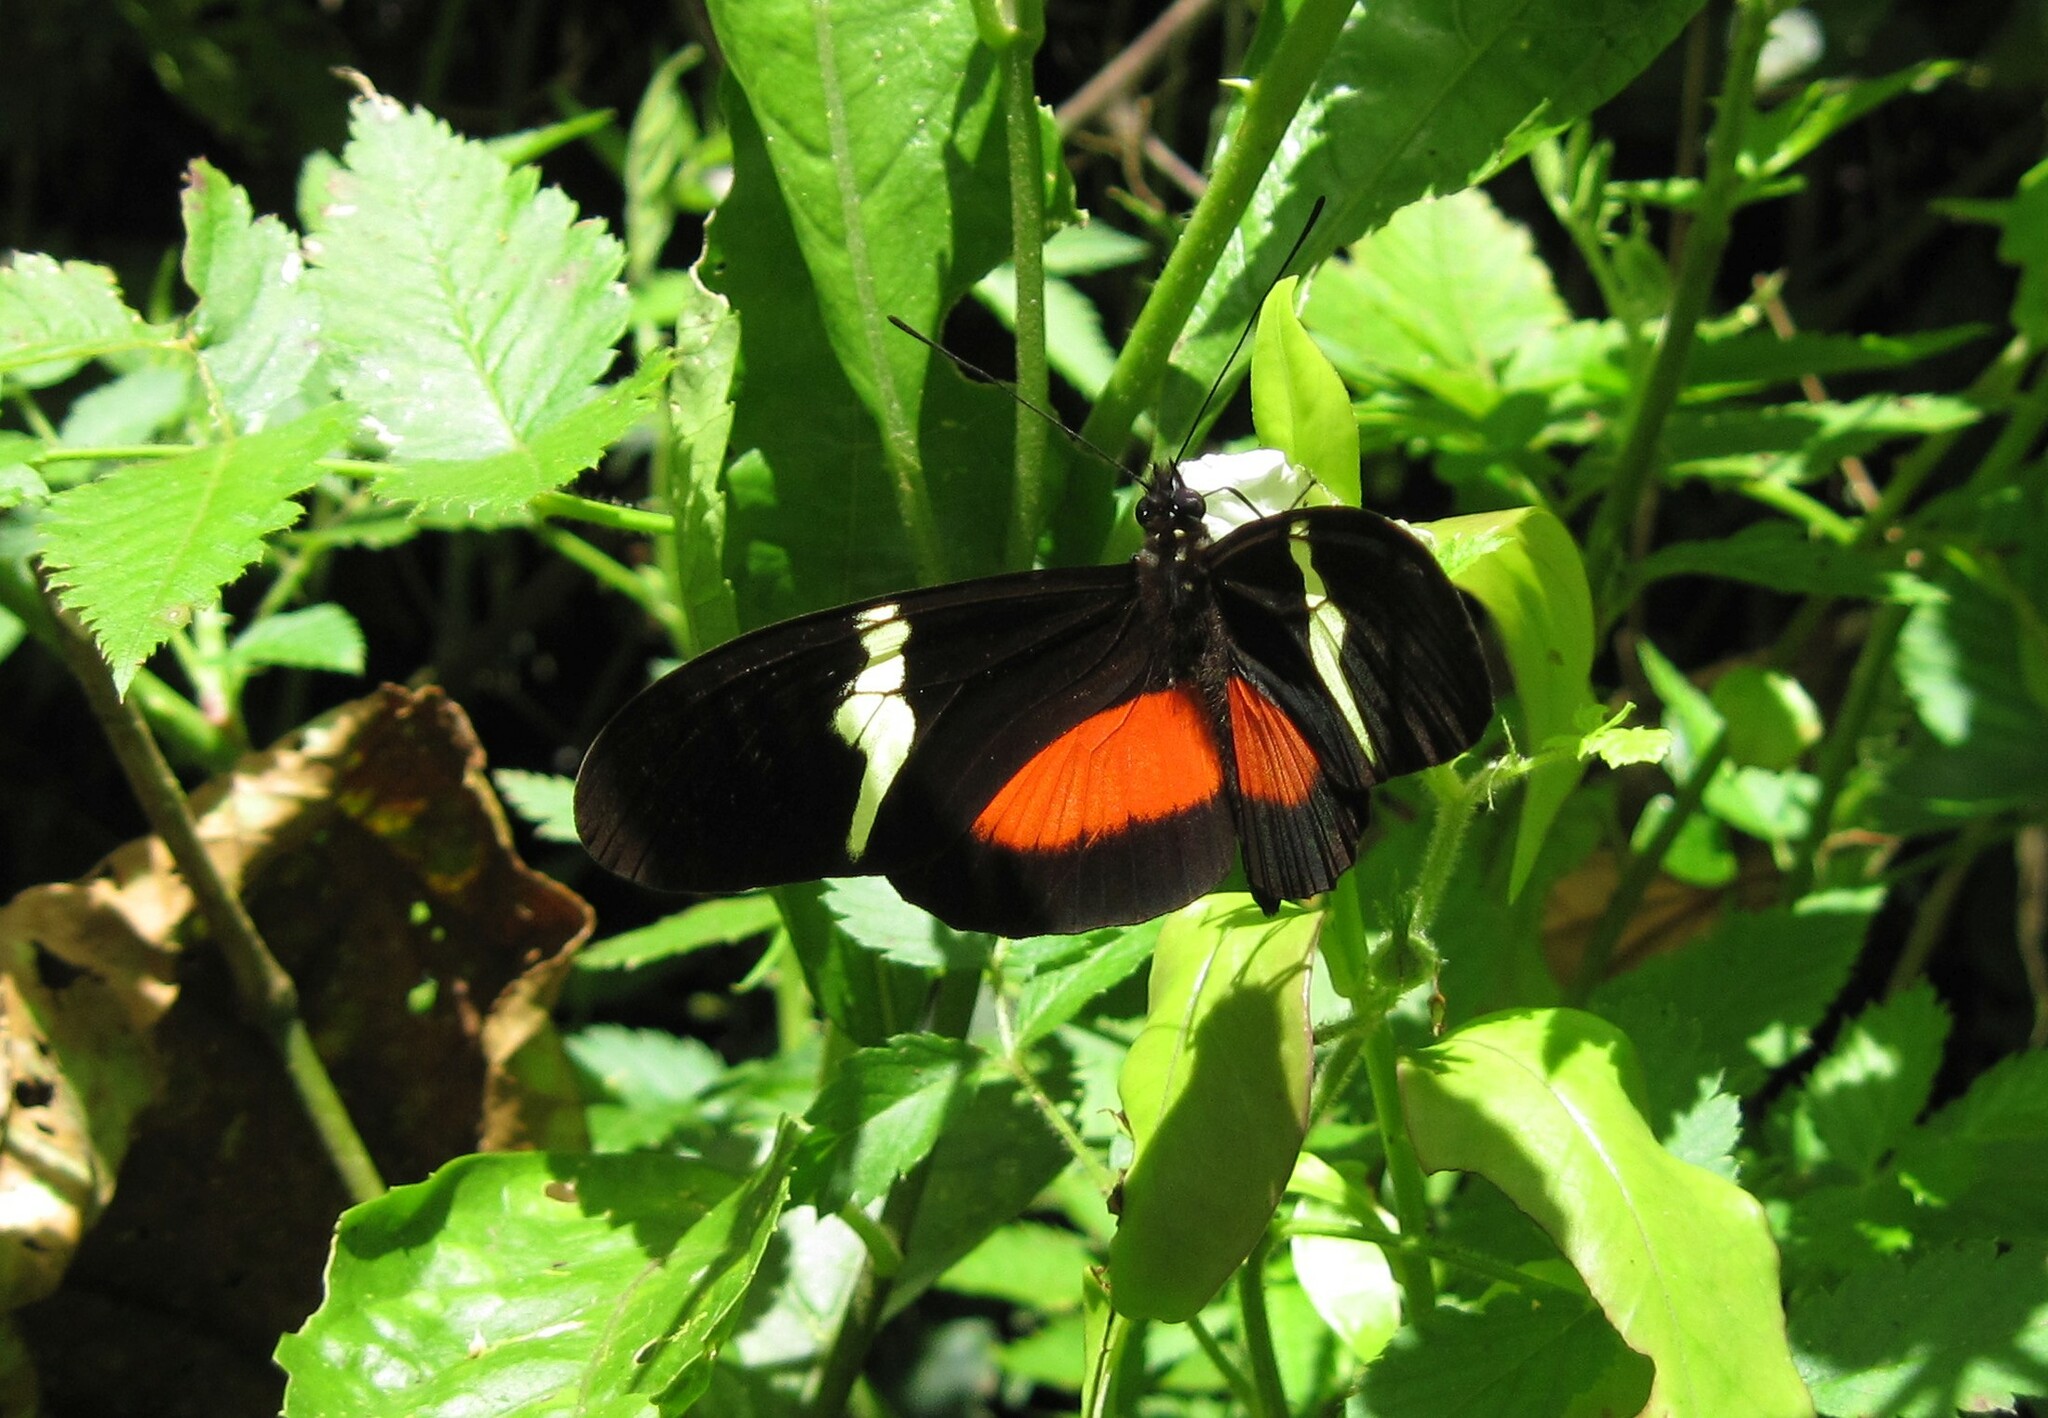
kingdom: Animalia
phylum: Arthropoda
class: Insecta
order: Lepidoptera
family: Nymphalidae
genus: Heliconius
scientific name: Heliconius clysonymus
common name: Clysonymus longwing
